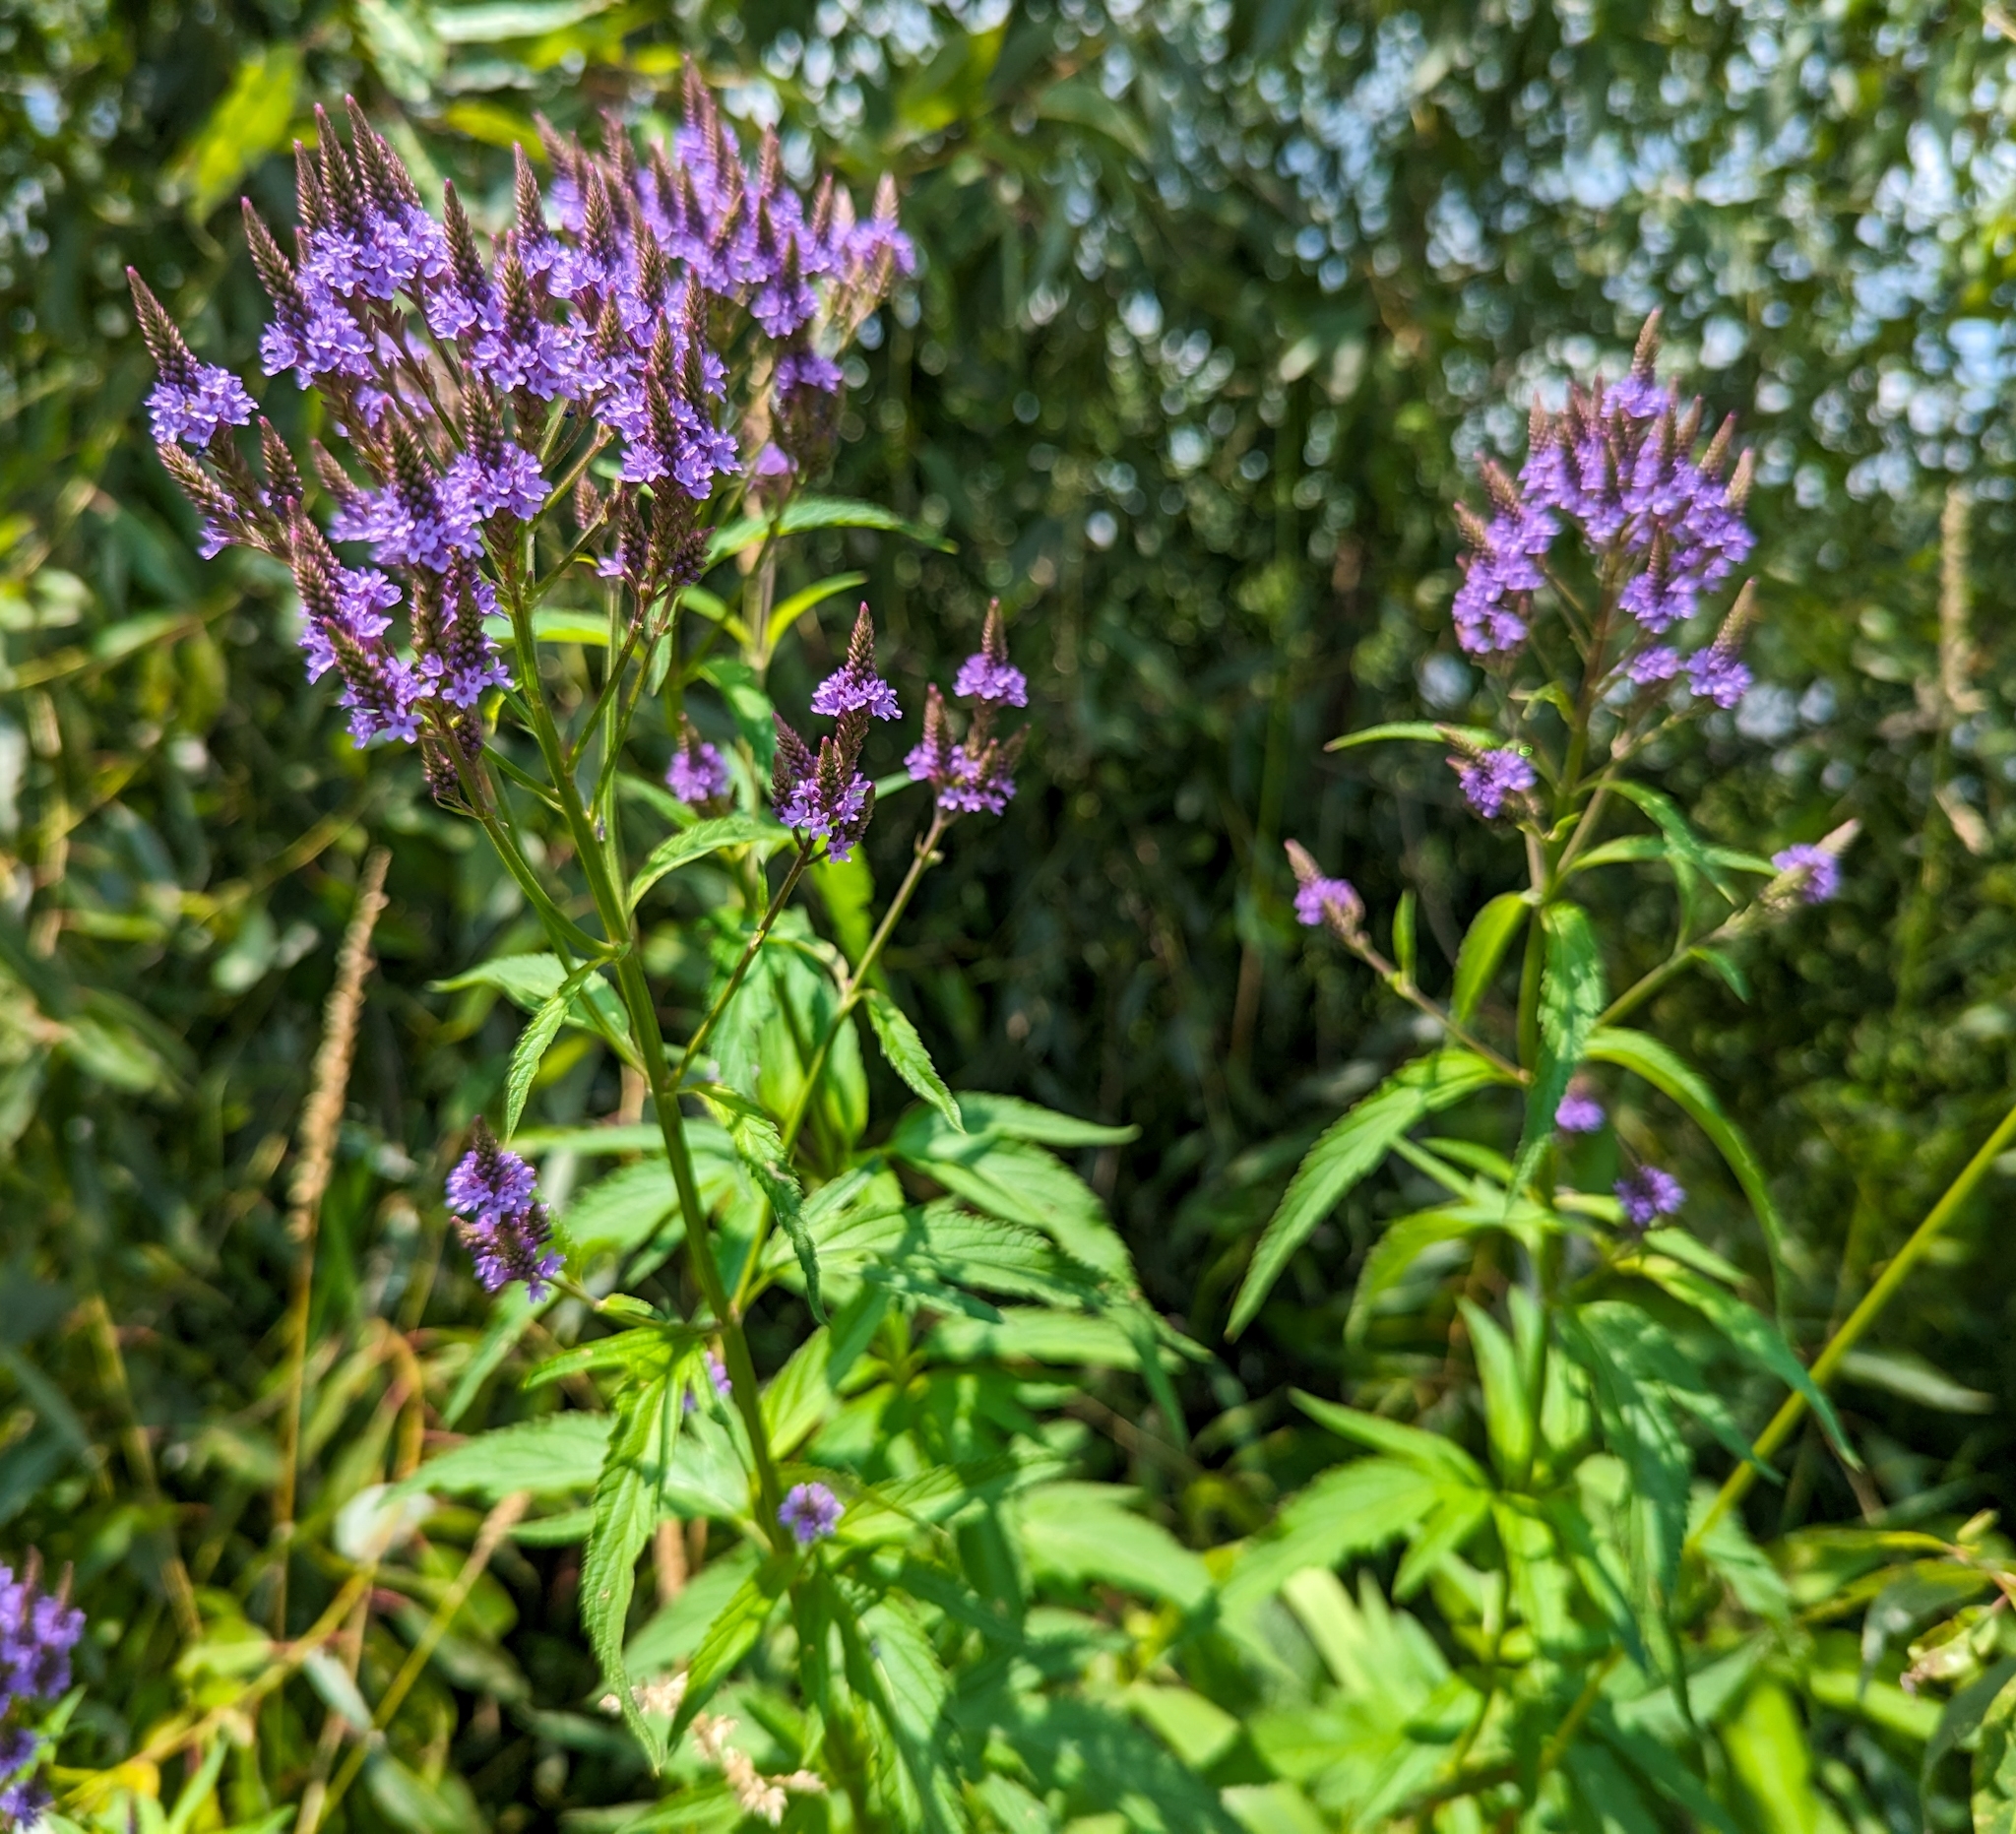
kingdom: Plantae
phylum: Tracheophyta
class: Magnoliopsida
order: Lamiales
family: Verbenaceae
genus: Verbena
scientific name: Verbena hastata
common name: American blue vervain
